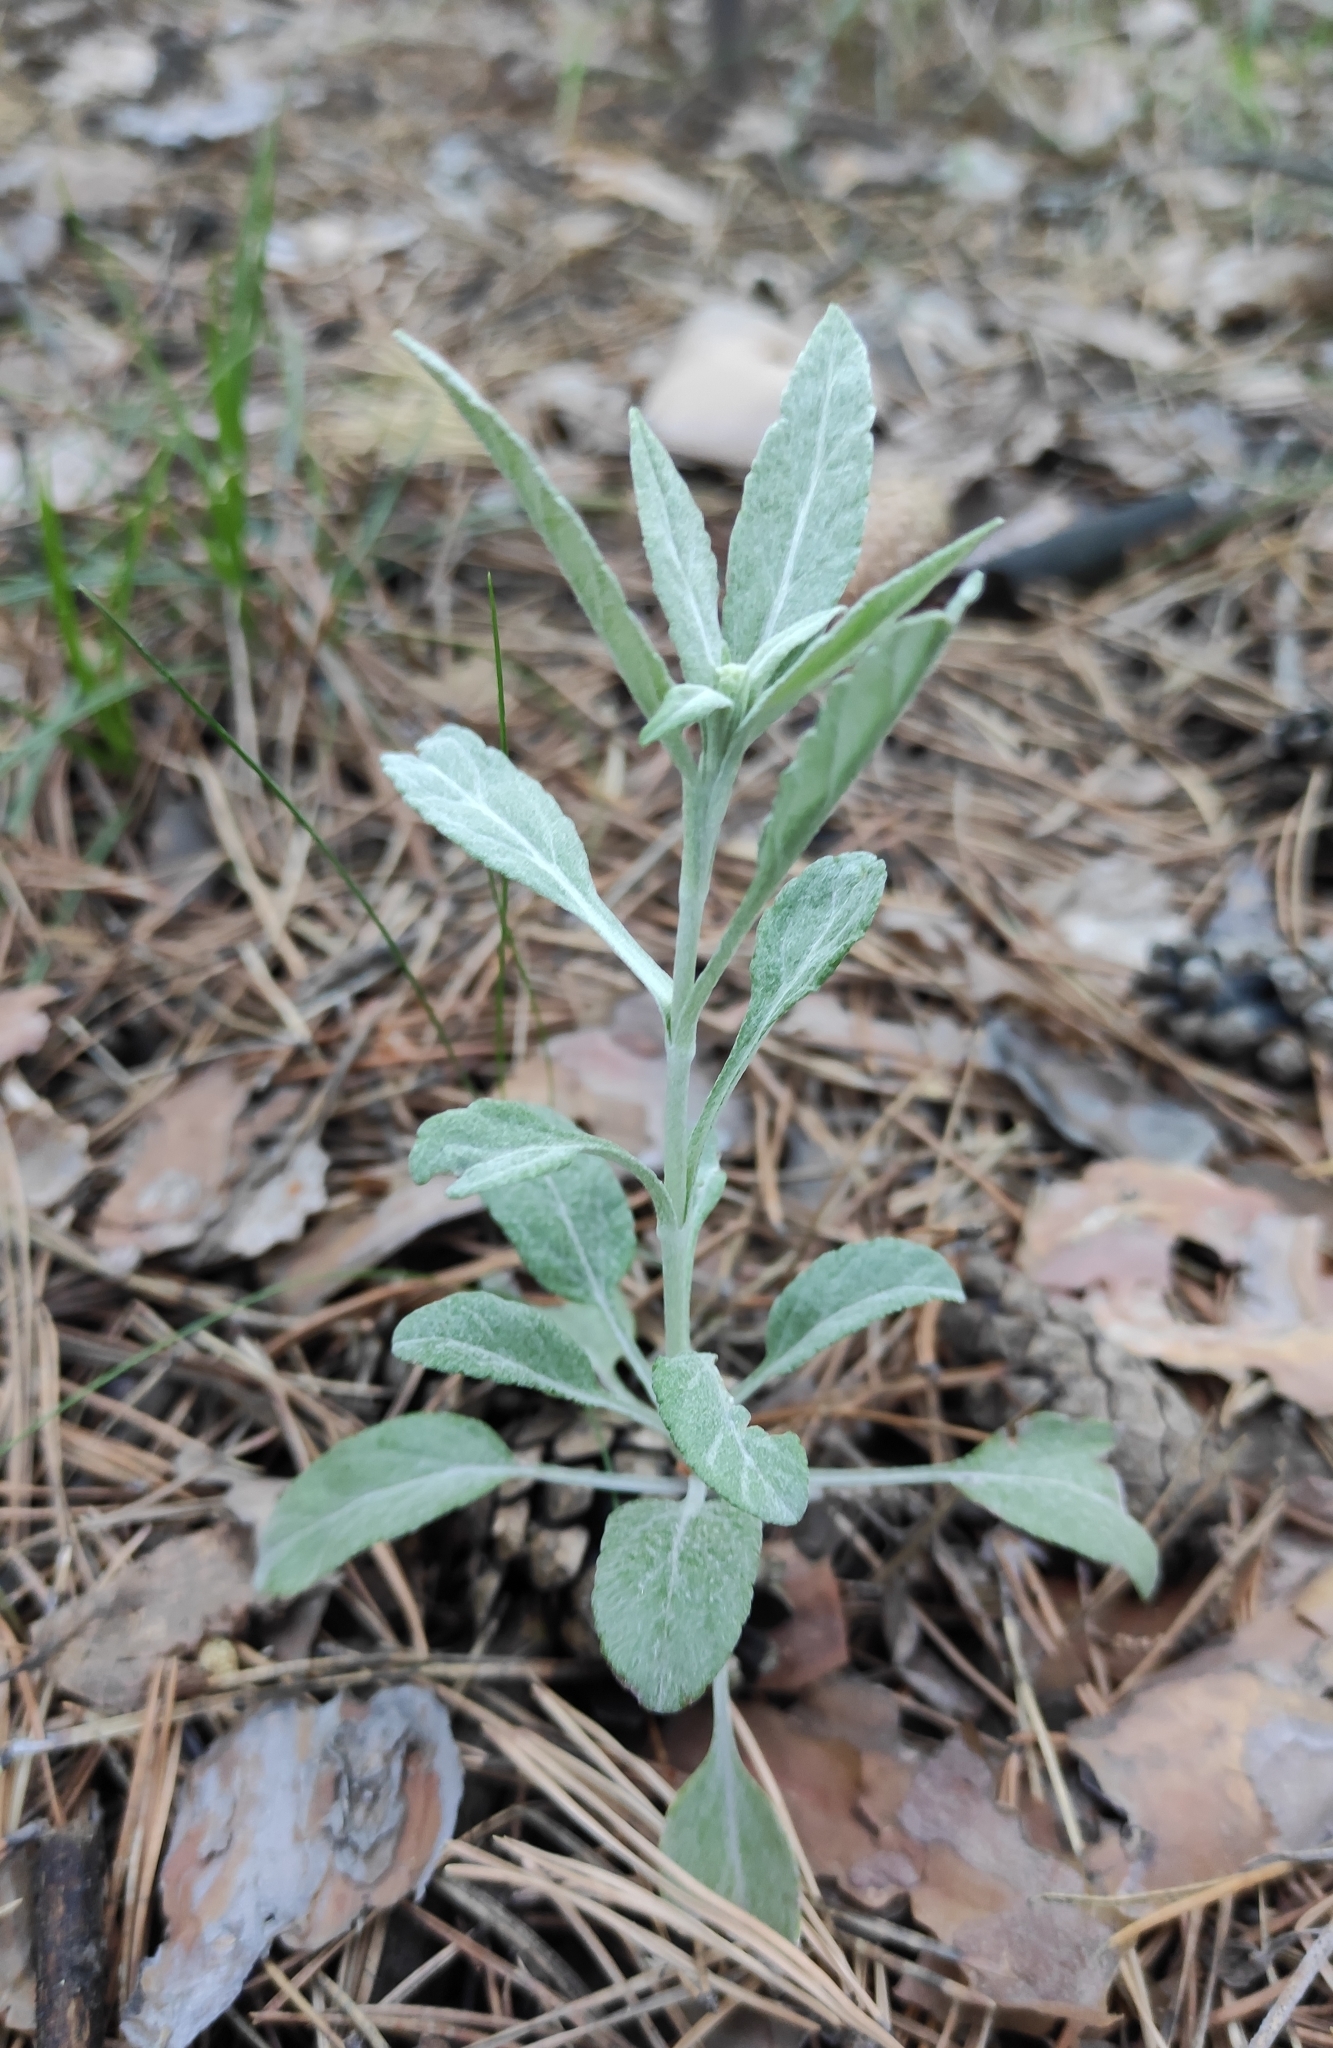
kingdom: Plantae
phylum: Tracheophyta
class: Magnoliopsida
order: Lamiales
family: Plantaginaceae
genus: Veronica
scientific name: Veronica incana
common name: Silver speedwell
